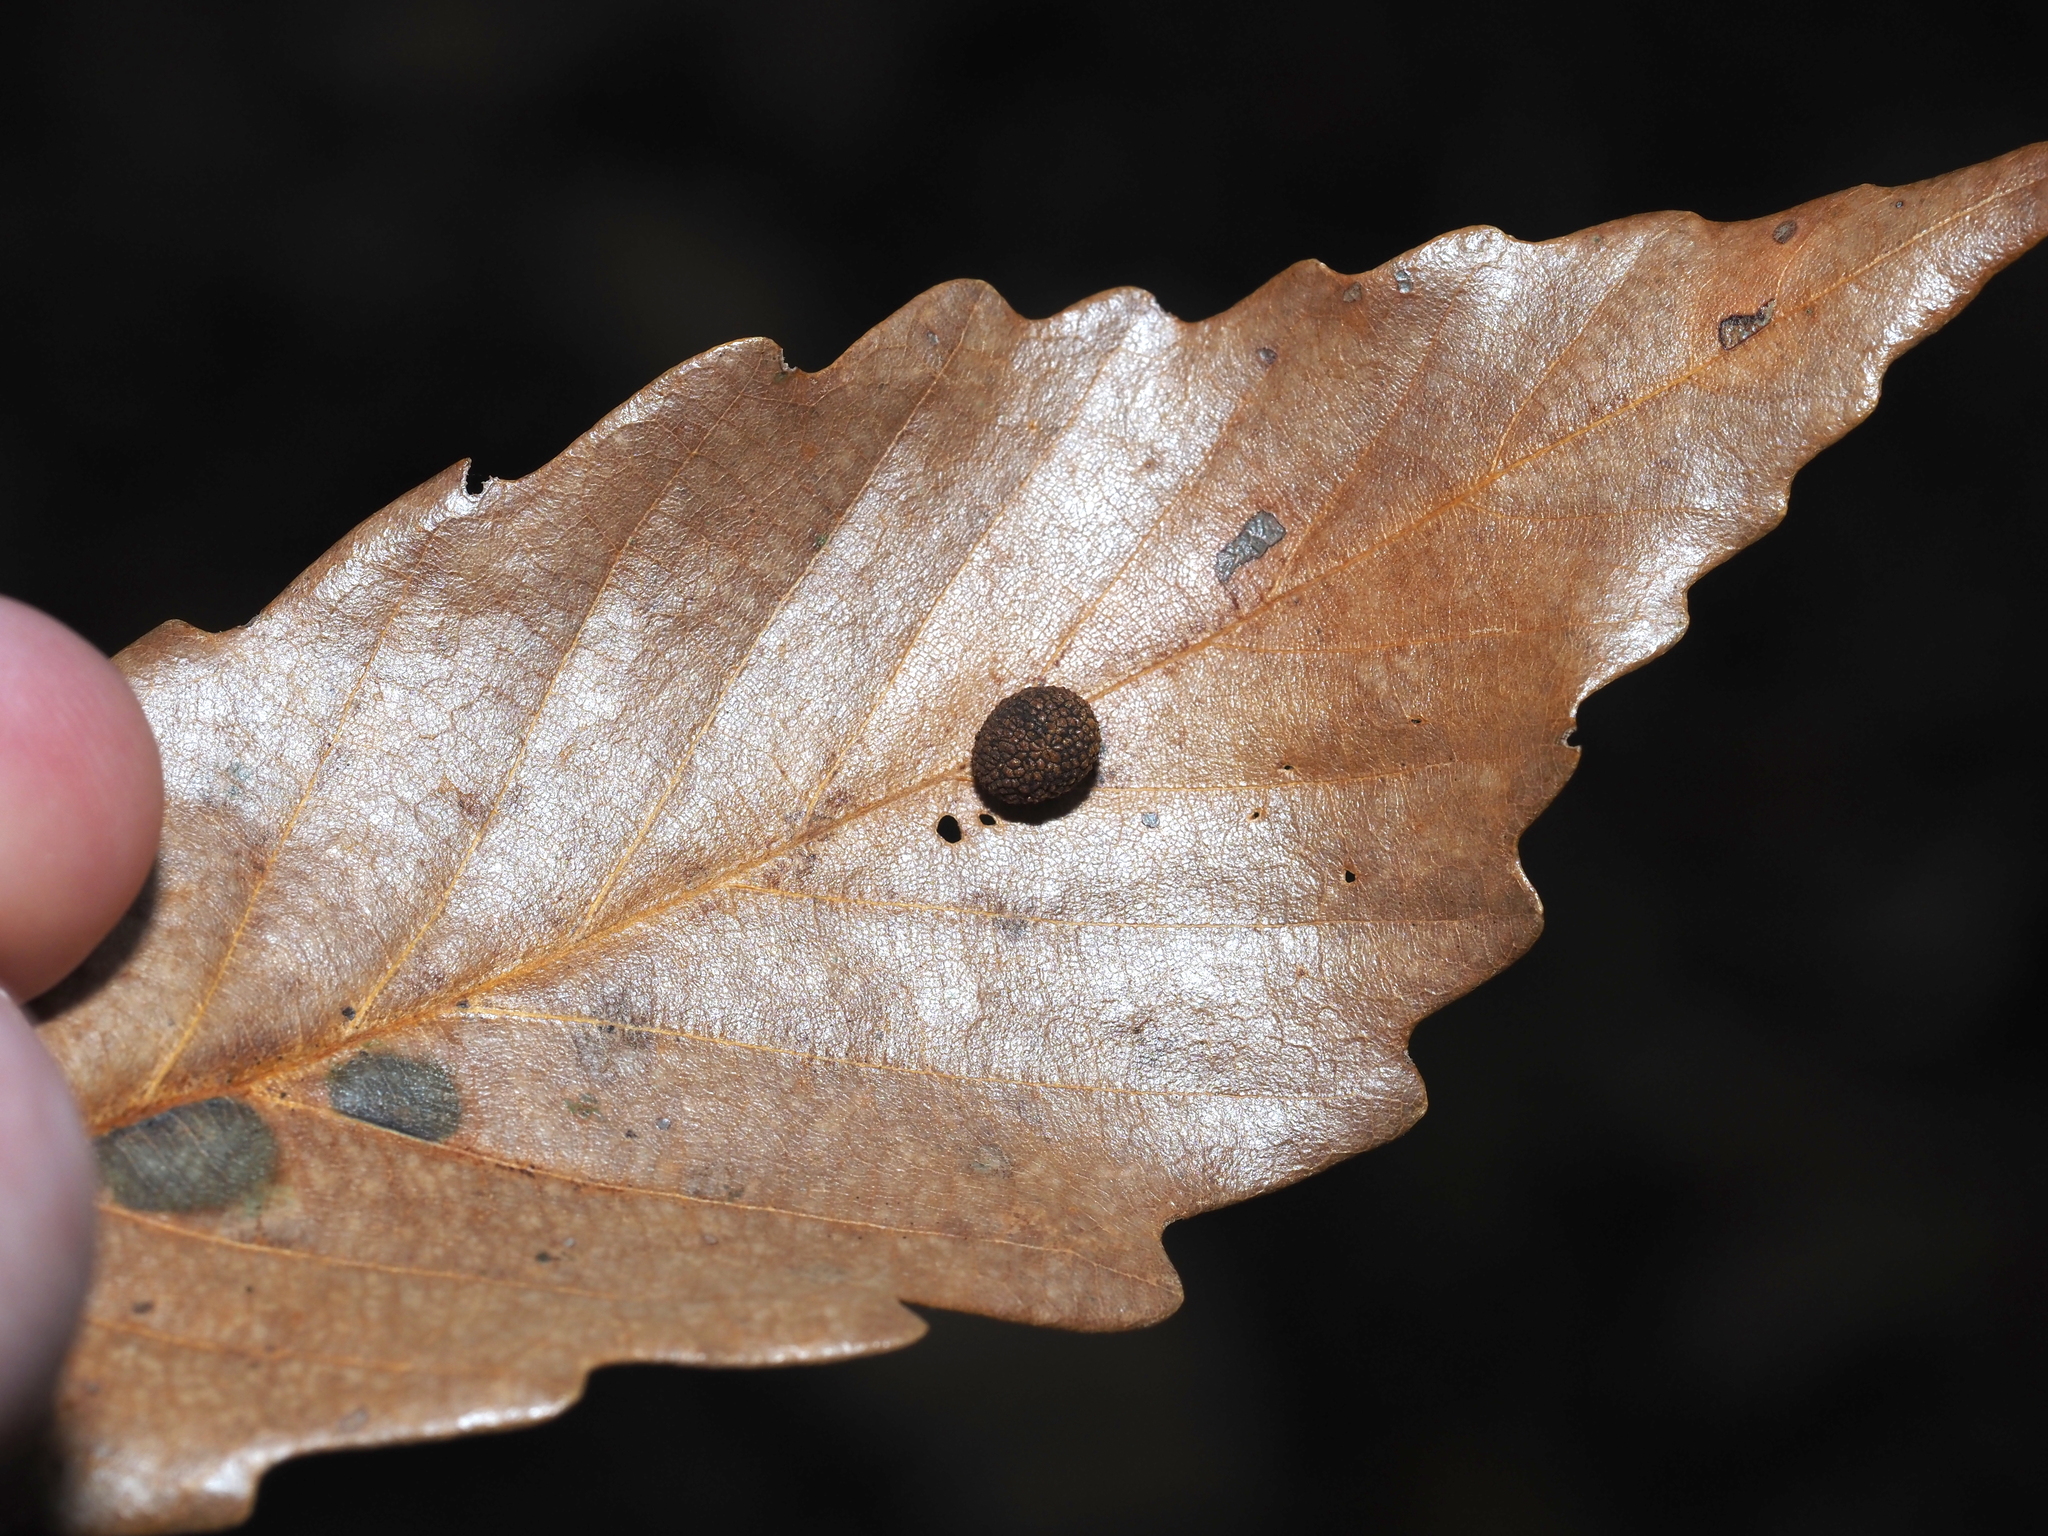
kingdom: Animalia
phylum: Arthropoda
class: Insecta
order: Hymenoptera
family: Cynipidae
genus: Acraspis
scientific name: Acraspis quercushirta
